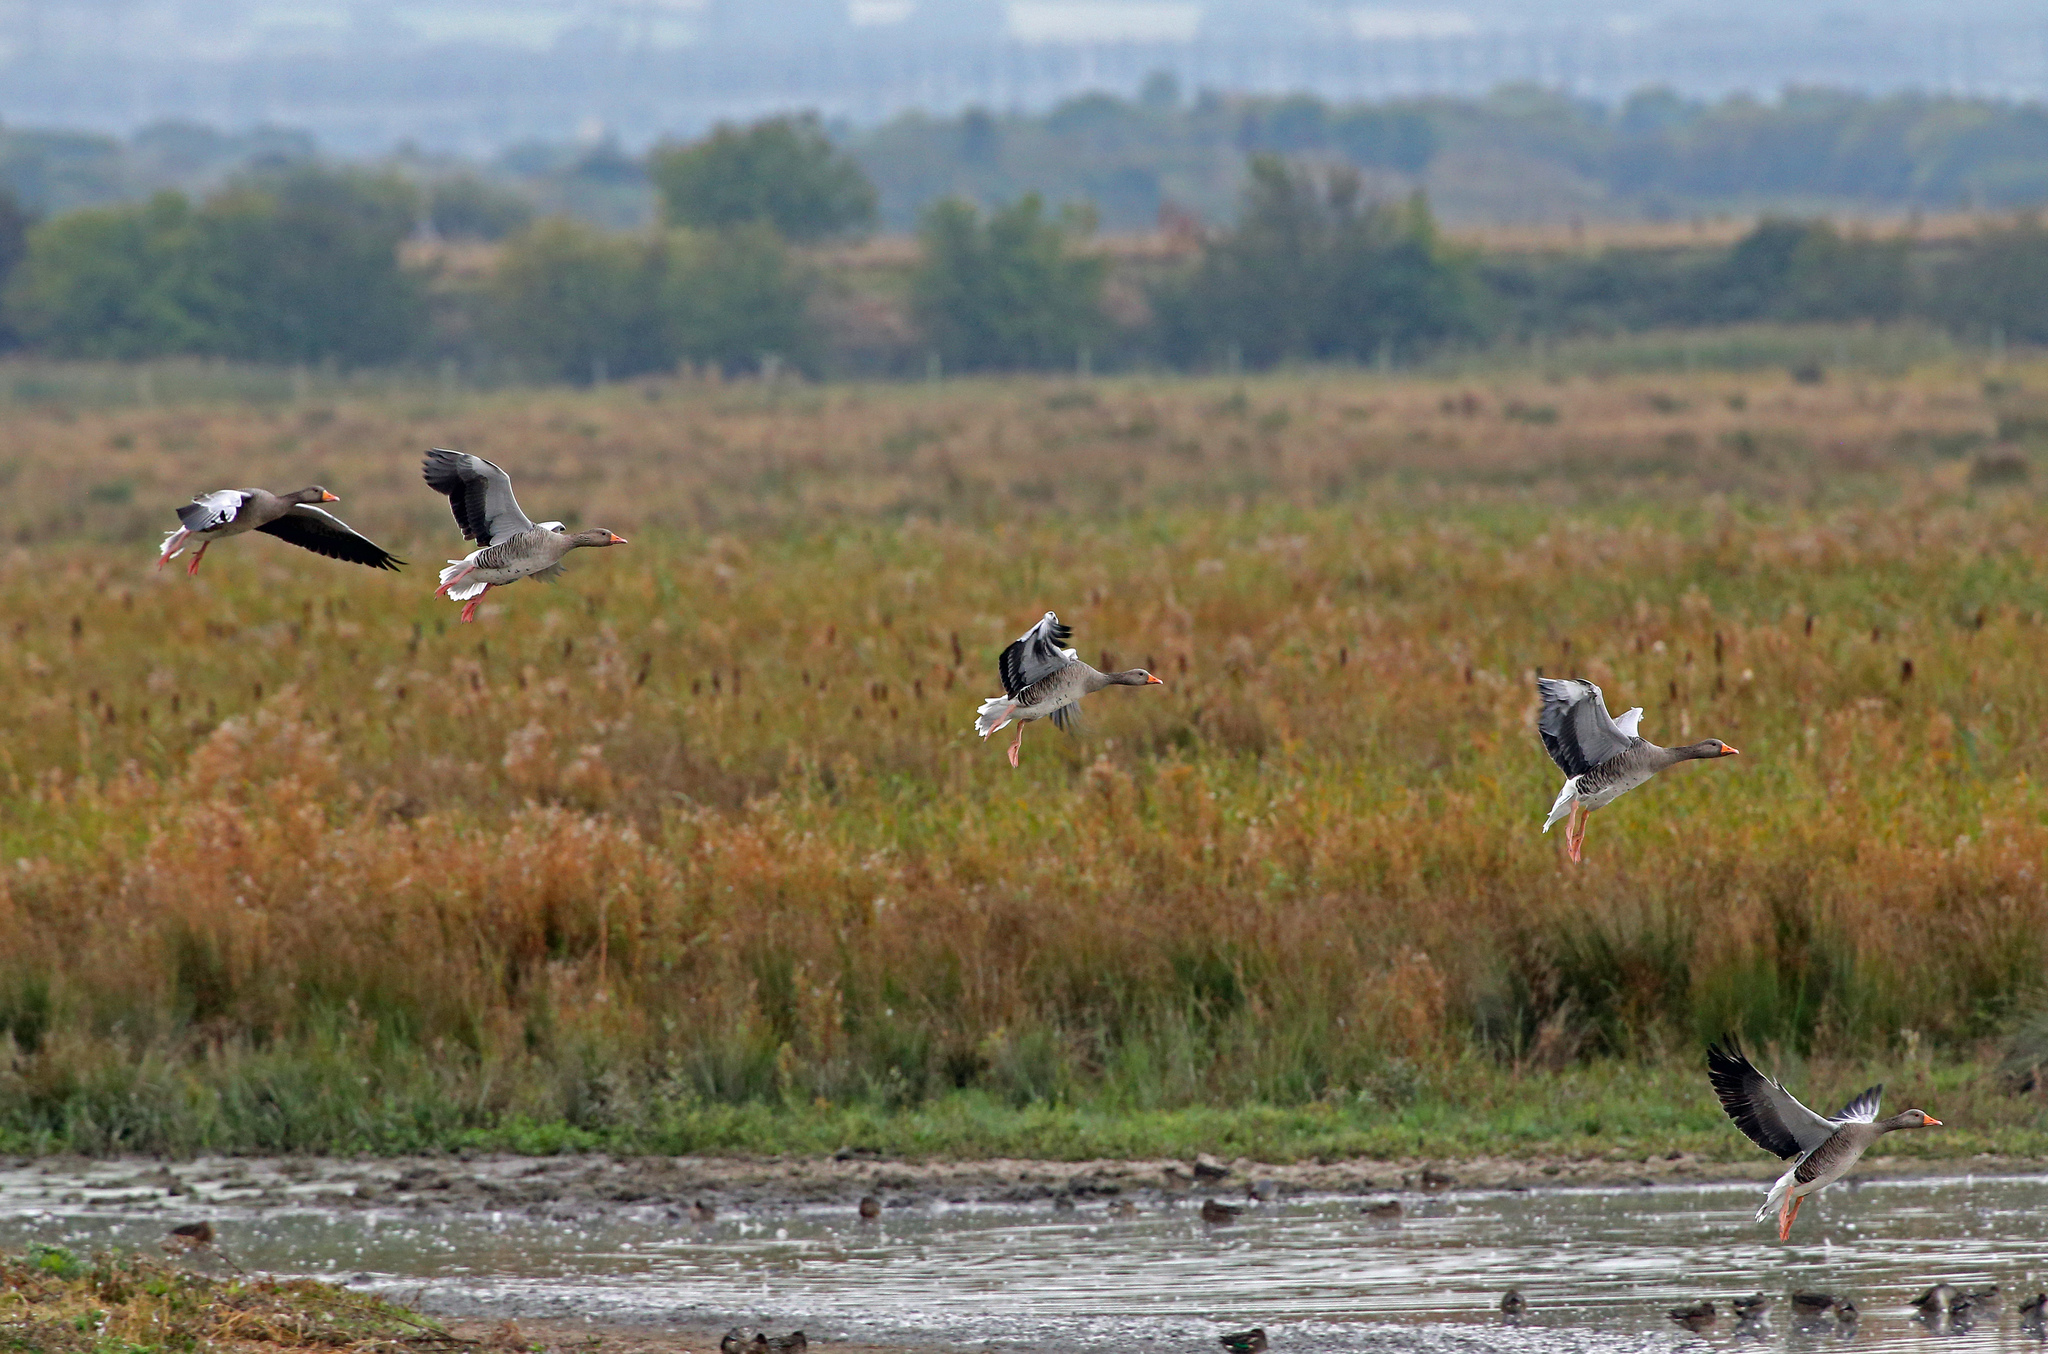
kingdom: Animalia
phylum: Chordata
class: Aves
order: Anseriformes
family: Anatidae
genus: Anser
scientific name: Anser anser
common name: Greylag goose
